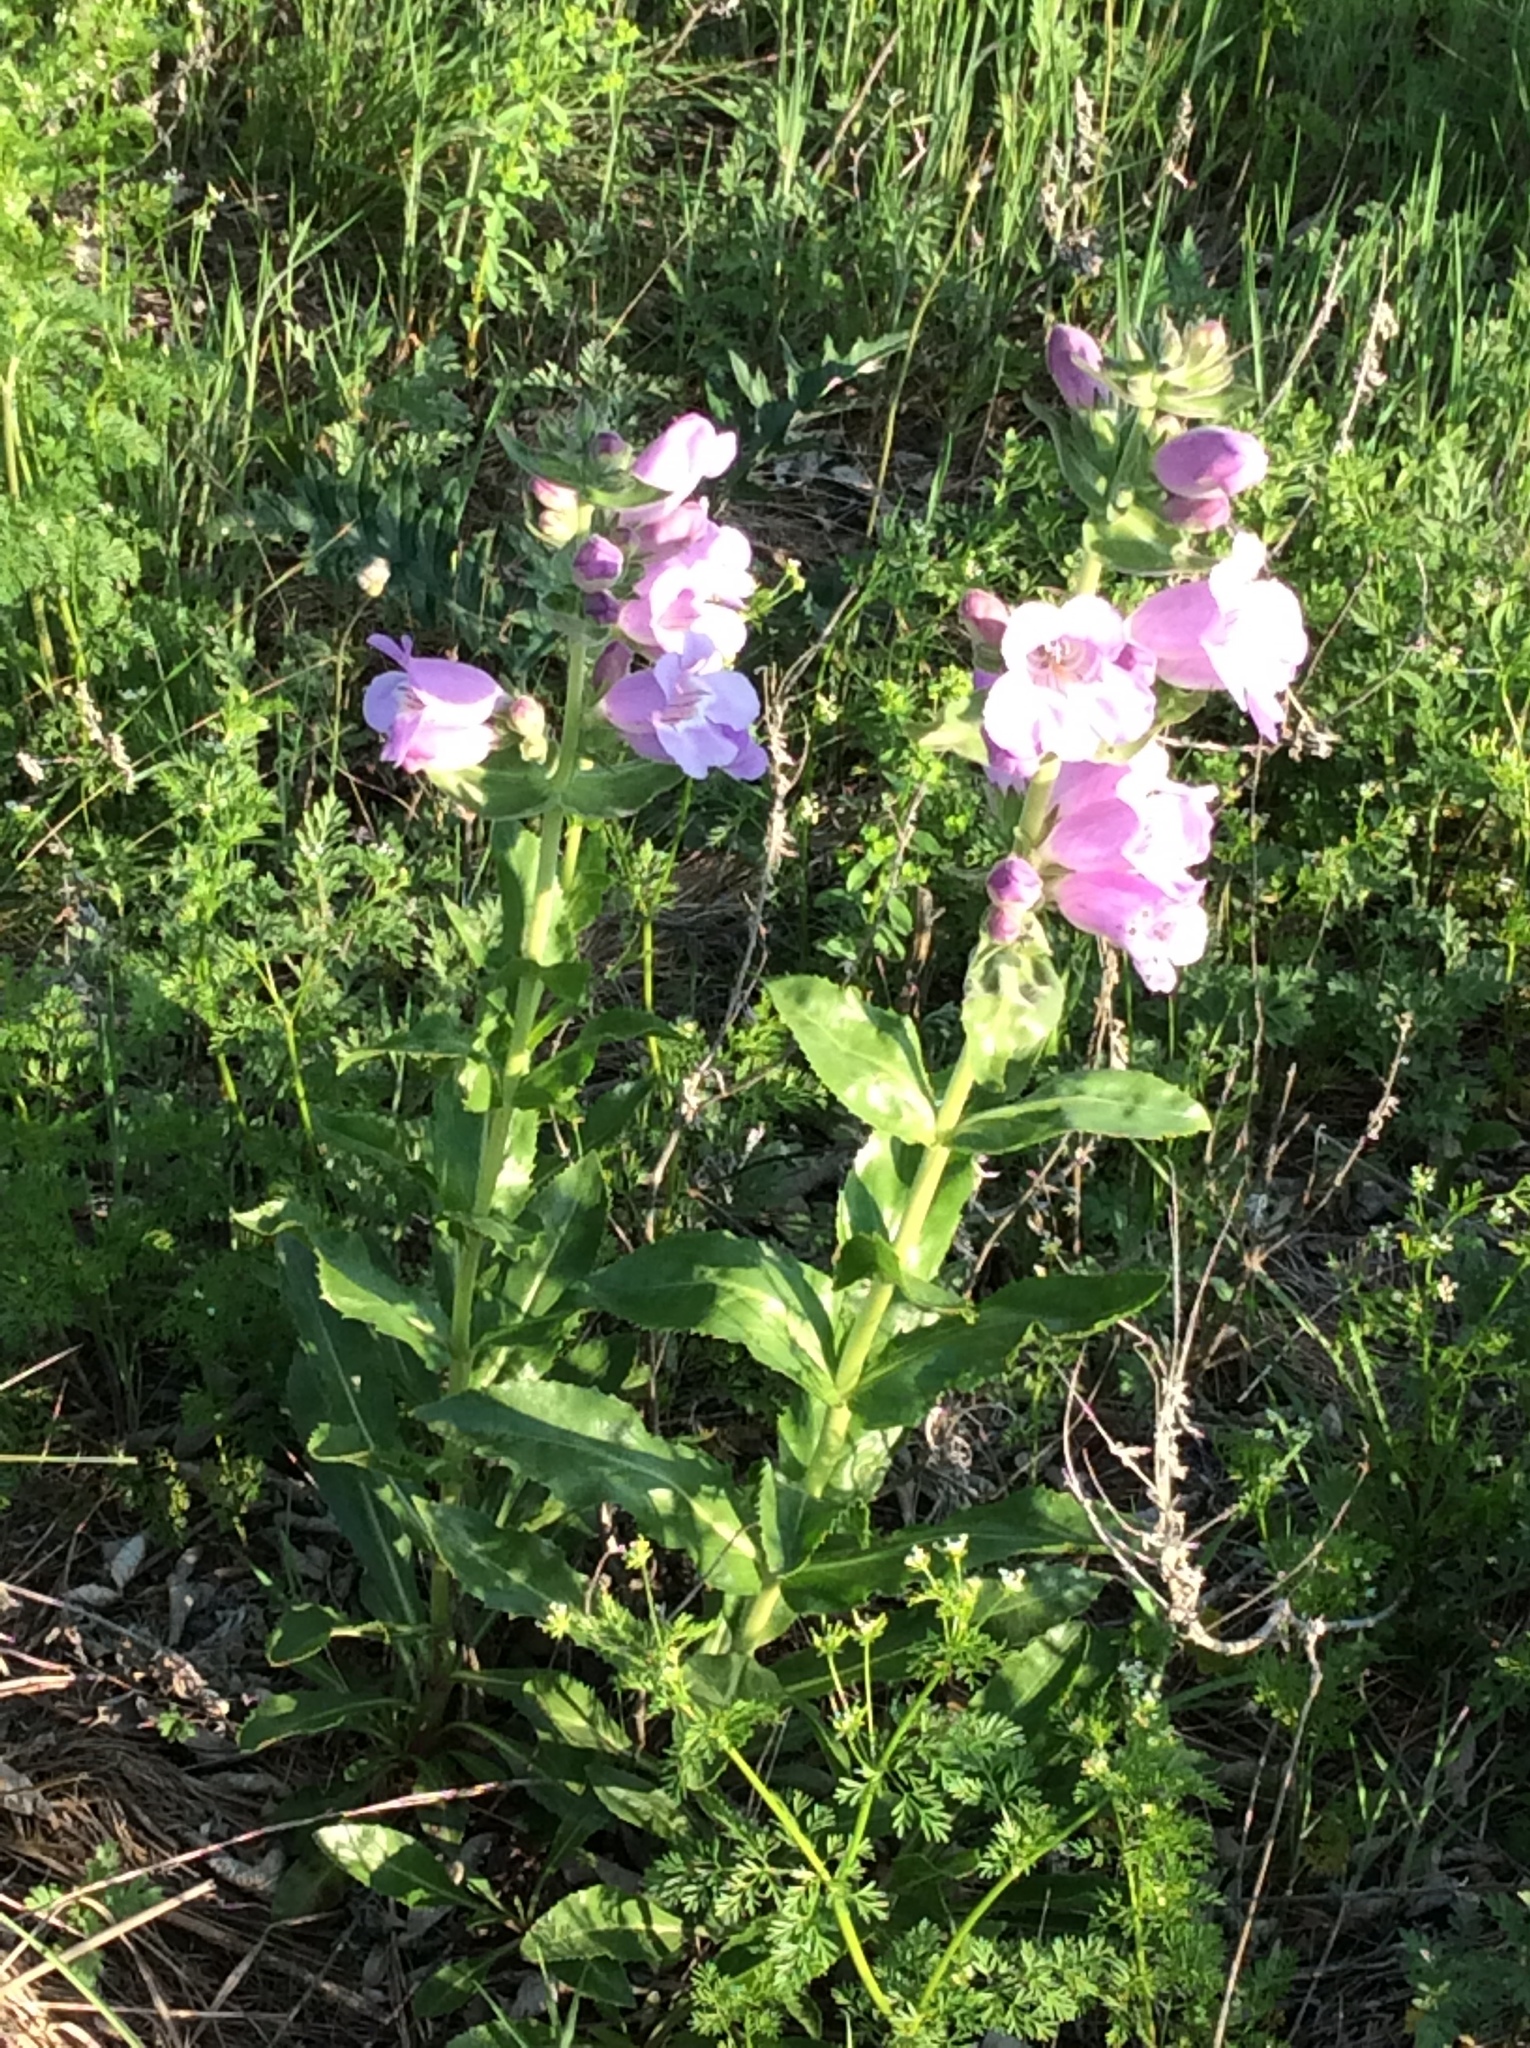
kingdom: Plantae
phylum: Tracheophyta
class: Magnoliopsida
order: Lamiales
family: Plantaginaceae
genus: Penstemon
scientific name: Penstemon cobaea
